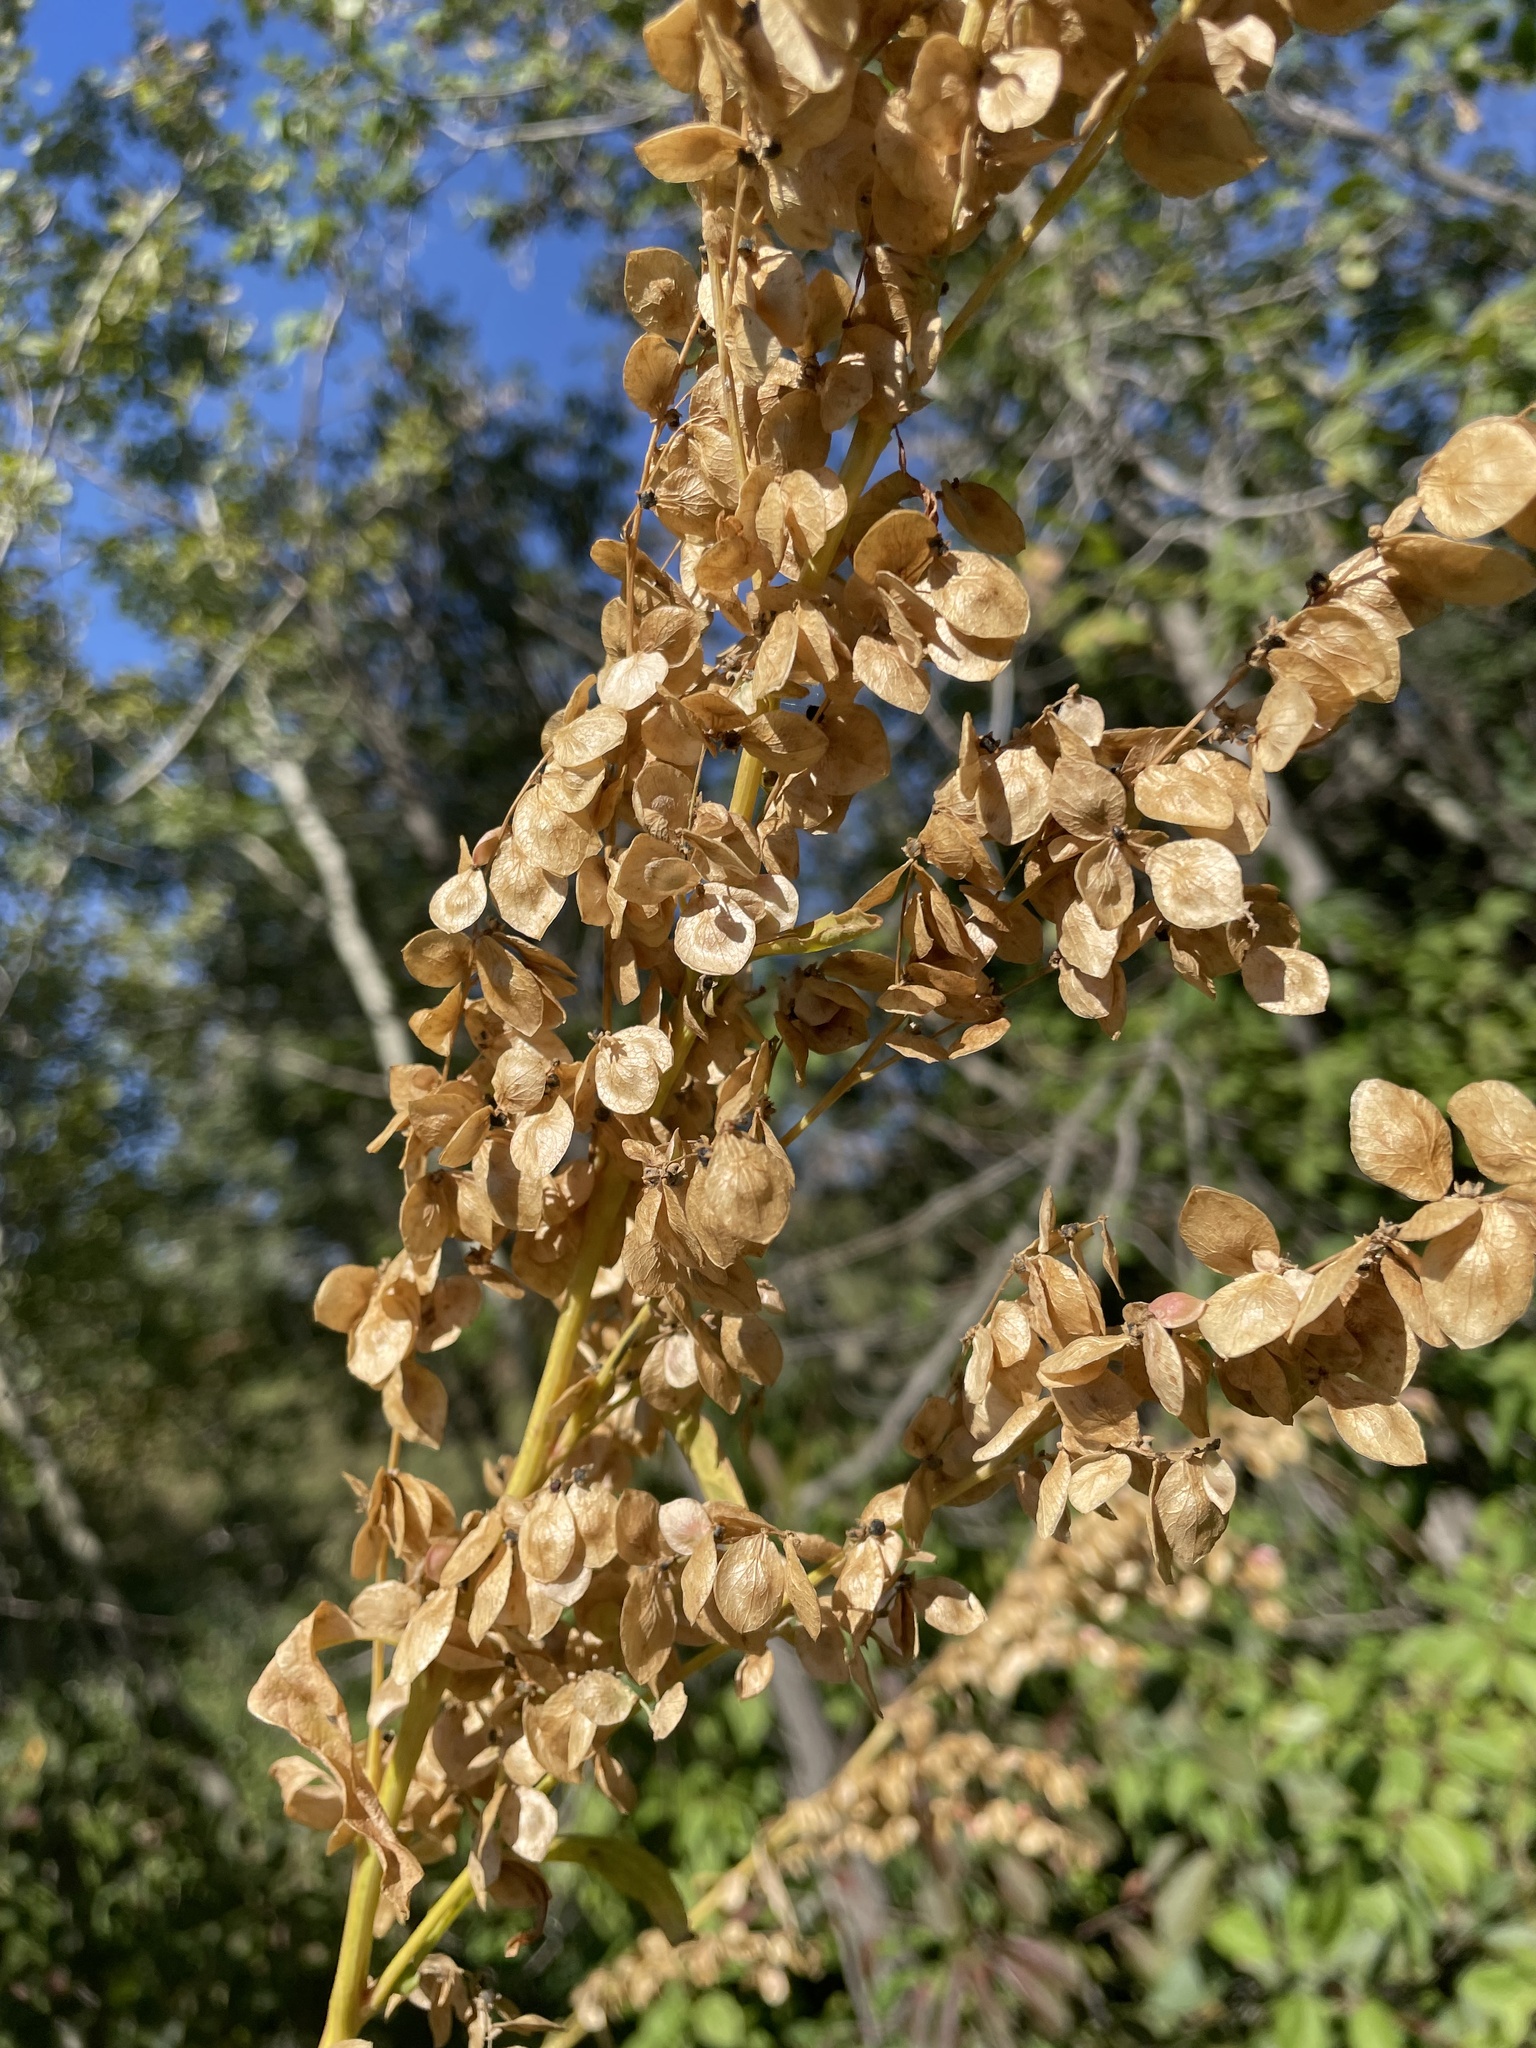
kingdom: Plantae
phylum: Tracheophyta
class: Magnoliopsida
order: Caryophyllales
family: Amaranthaceae
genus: Atriplex
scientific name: Atriplex hortensis
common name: Garden orache
